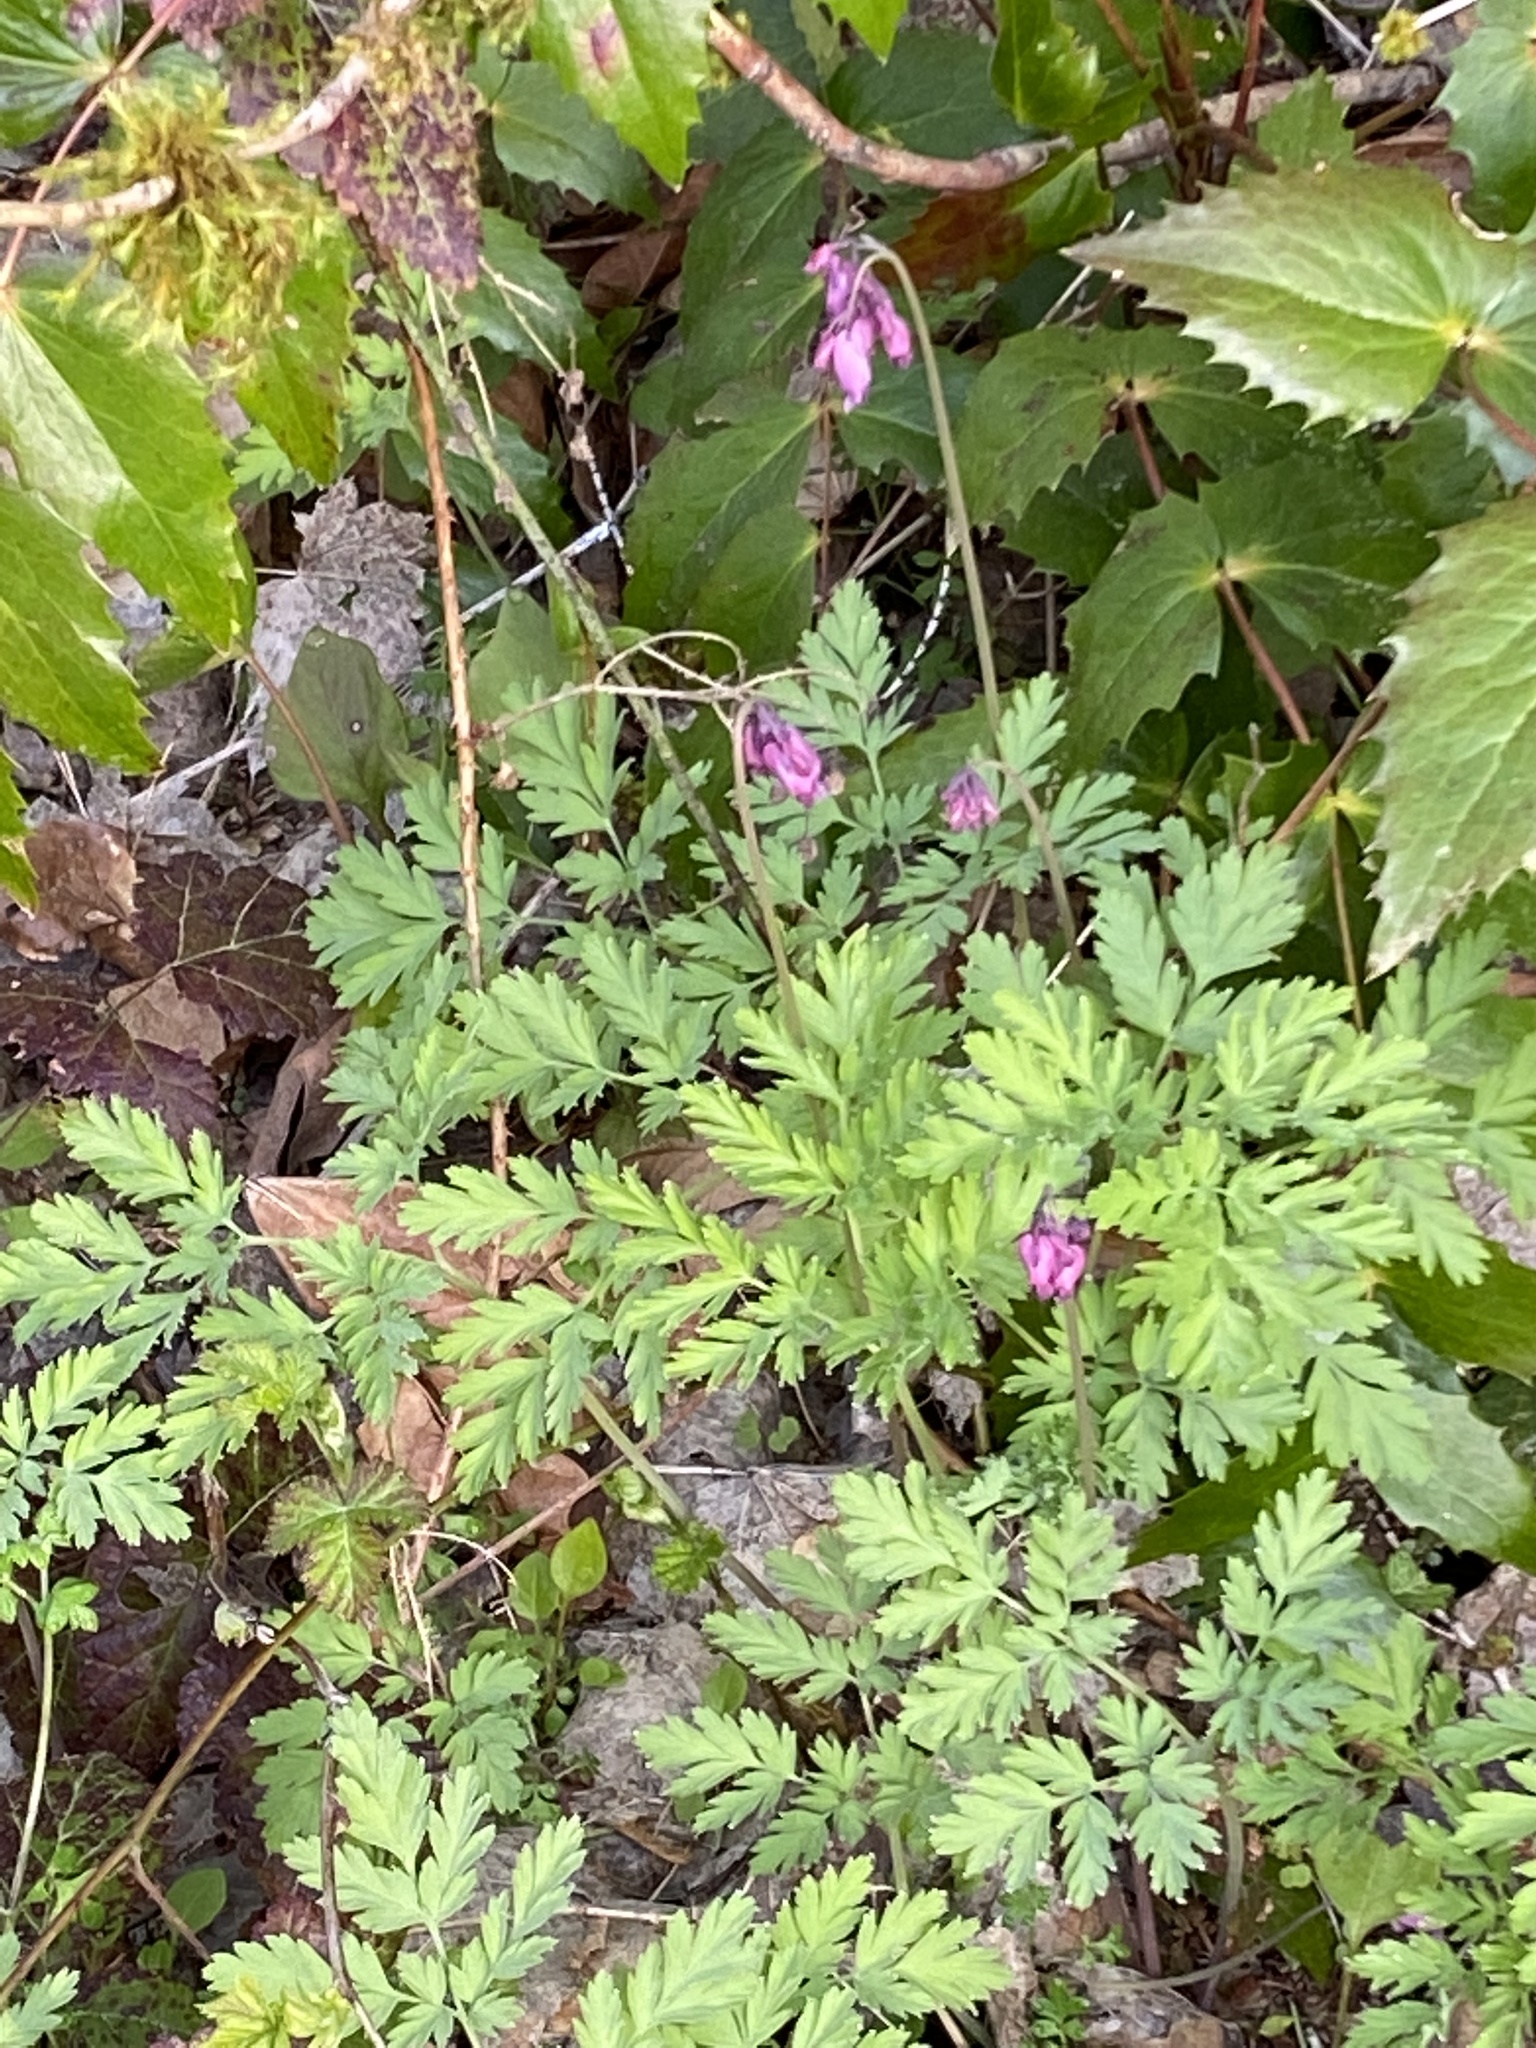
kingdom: Plantae
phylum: Tracheophyta
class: Magnoliopsida
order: Ranunculales
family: Papaveraceae
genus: Dicentra
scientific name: Dicentra formosa
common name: Bleeding-heart
